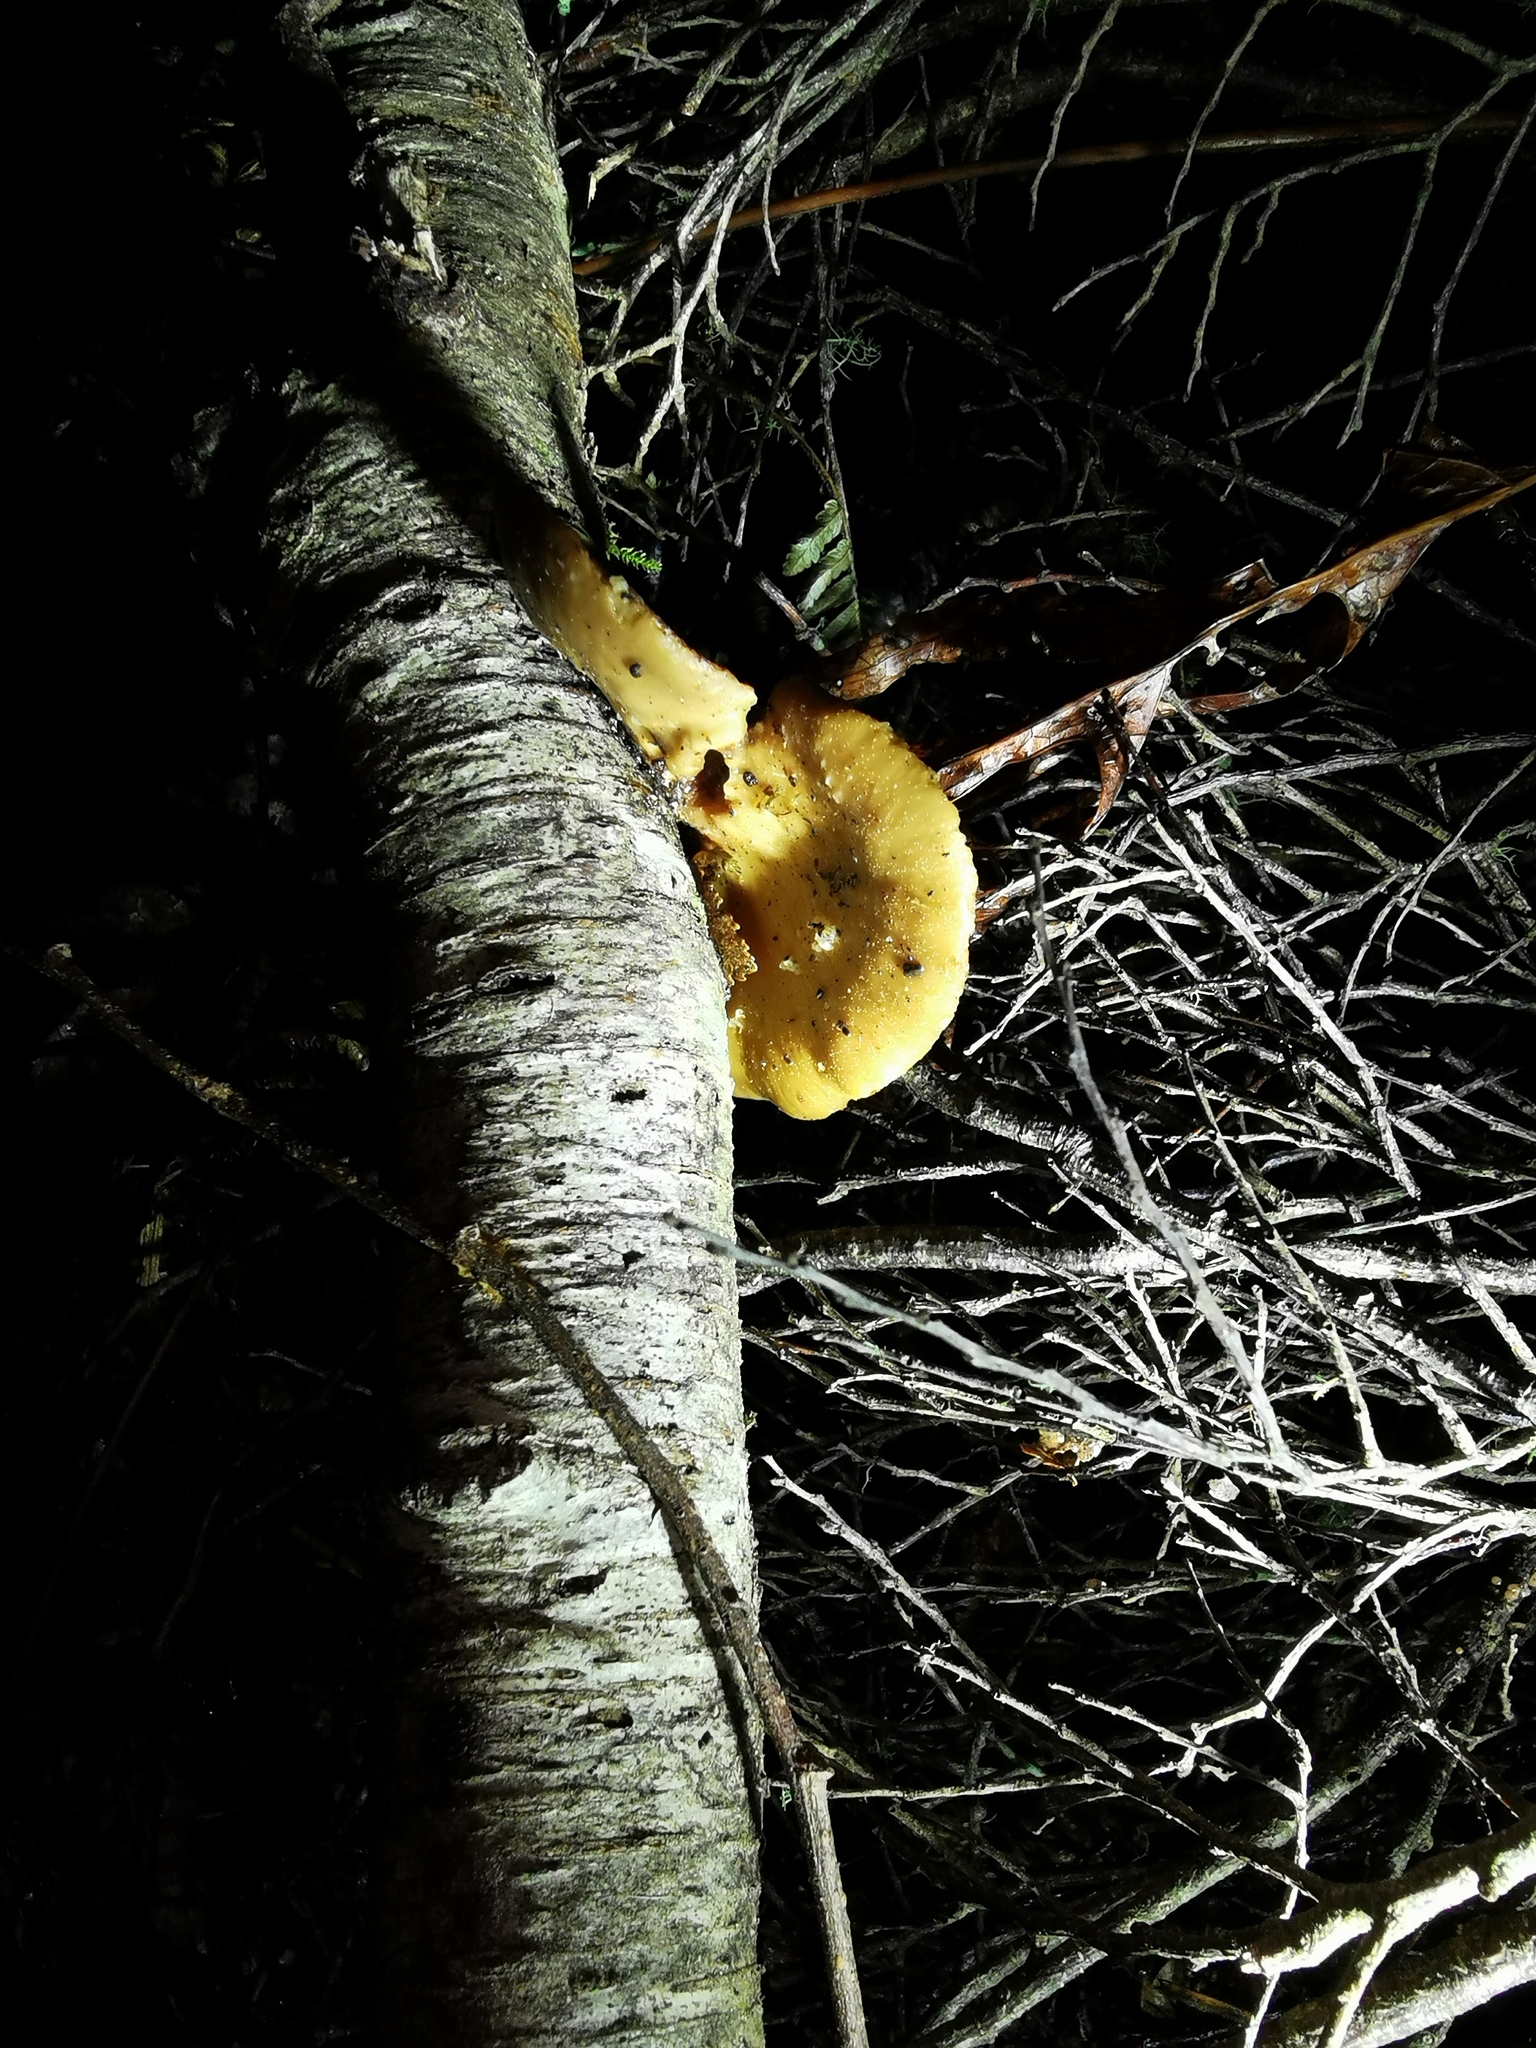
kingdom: Fungi
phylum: Basidiomycota
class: Agaricomycetes
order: Polyporales
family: Polyporaceae
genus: Polyporus
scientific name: Polyporus hypomelanus
